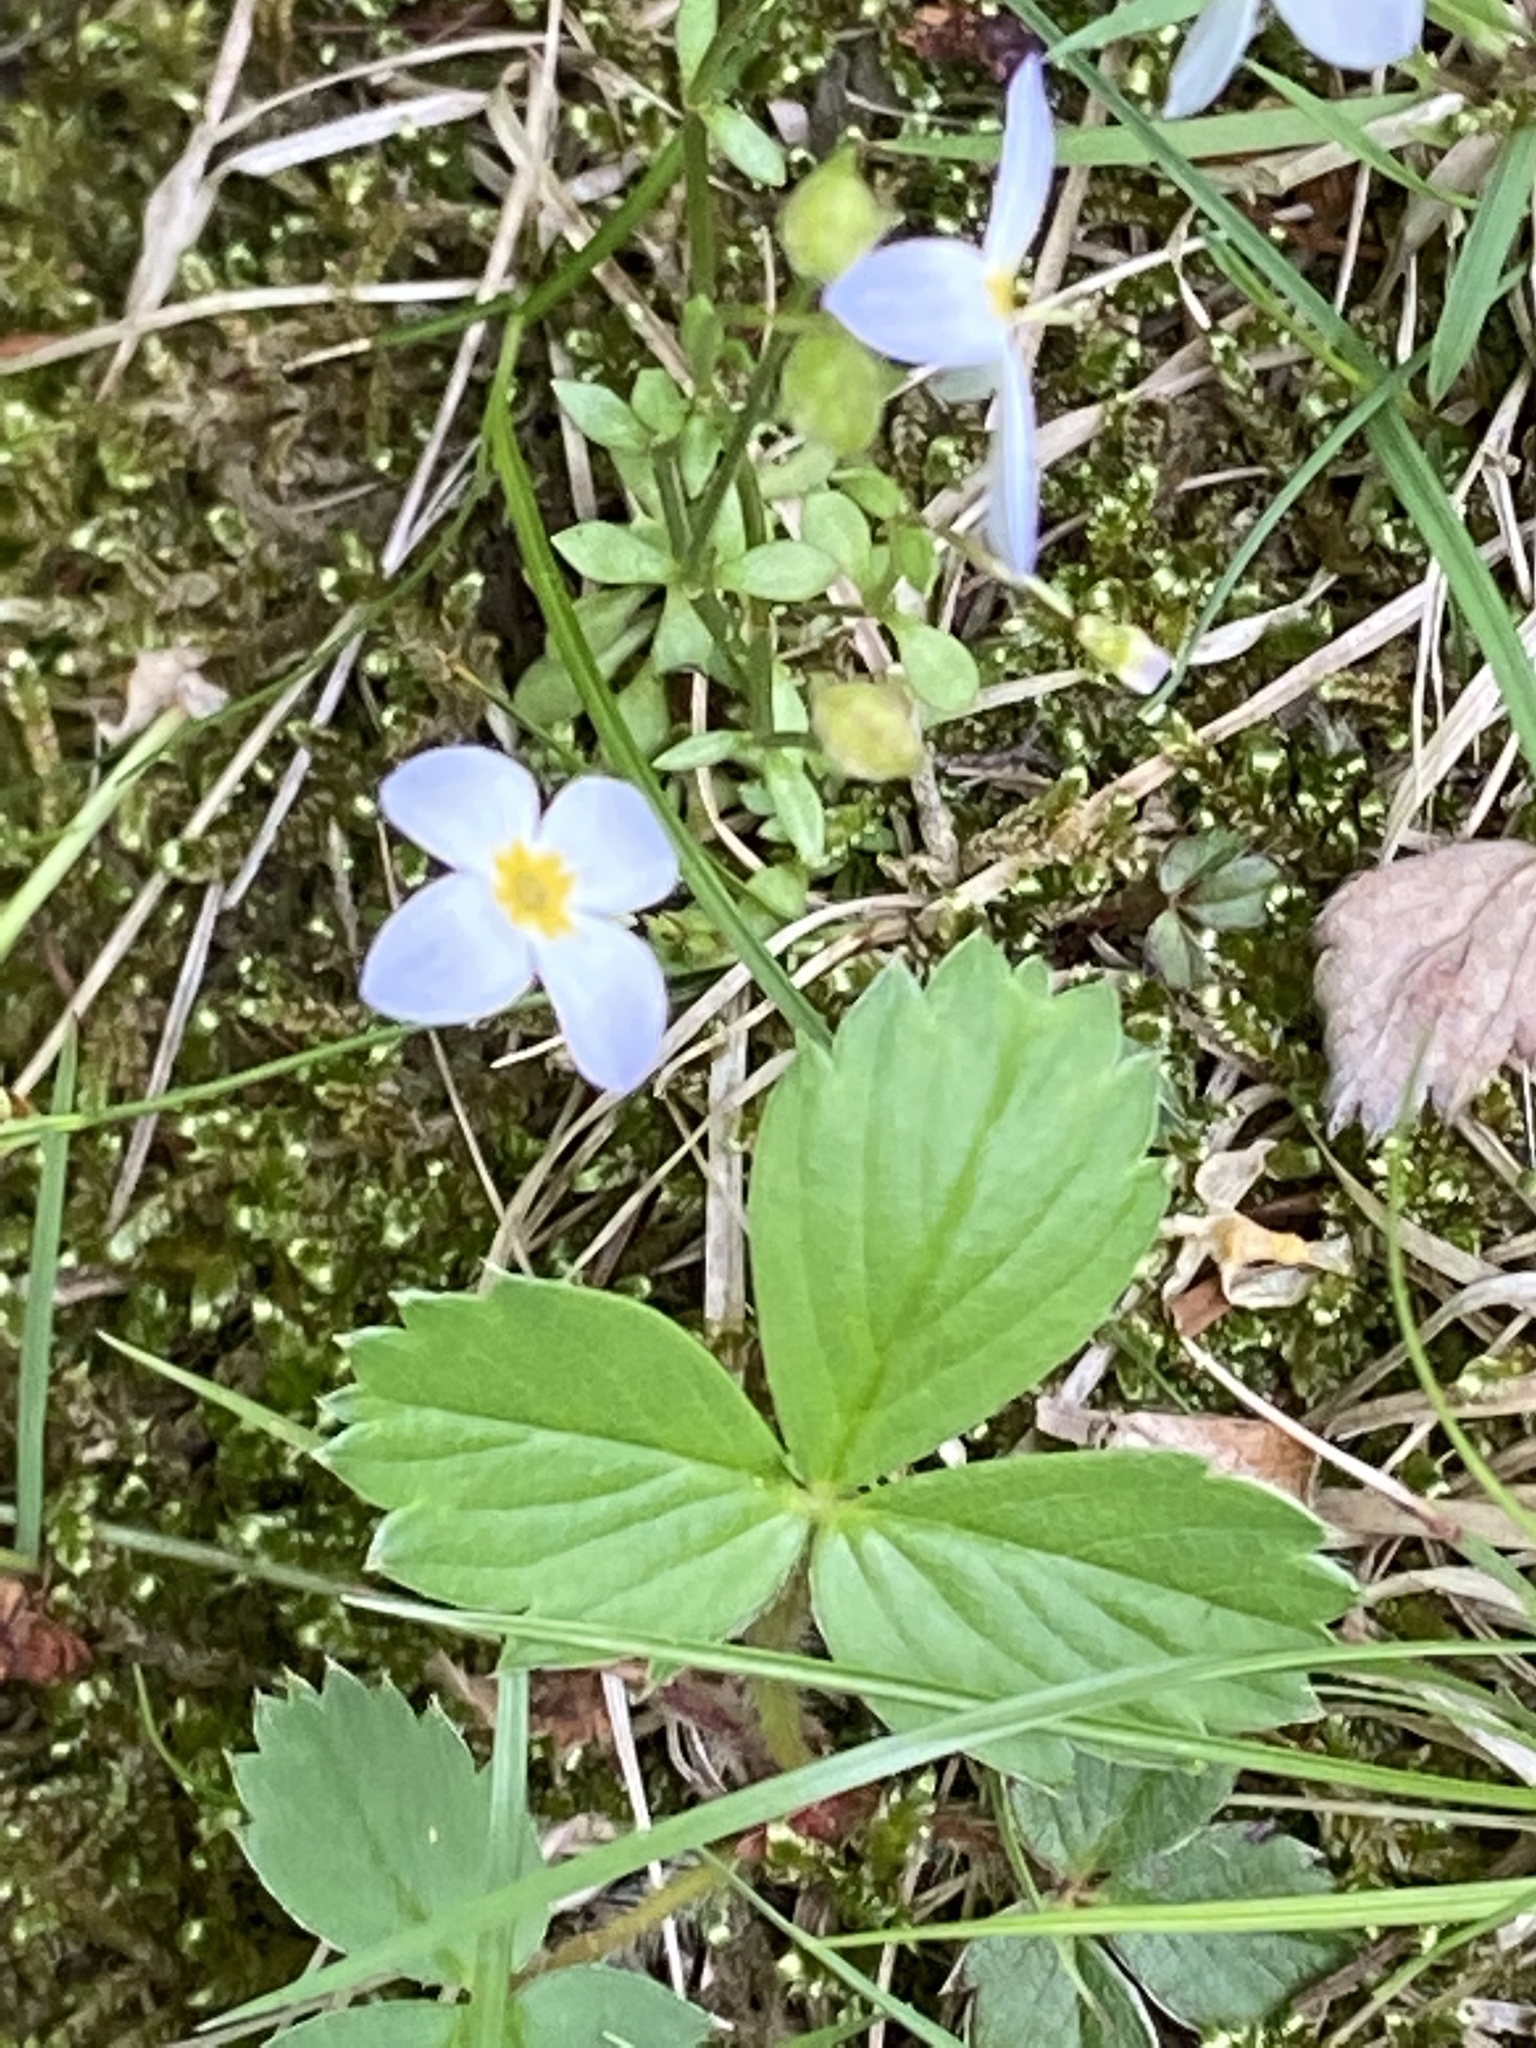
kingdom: Plantae
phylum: Tracheophyta
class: Magnoliopsida
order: Gentianales
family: Rubiaceae
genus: Houstonia
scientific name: Houstonia caerulea
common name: Bluets
